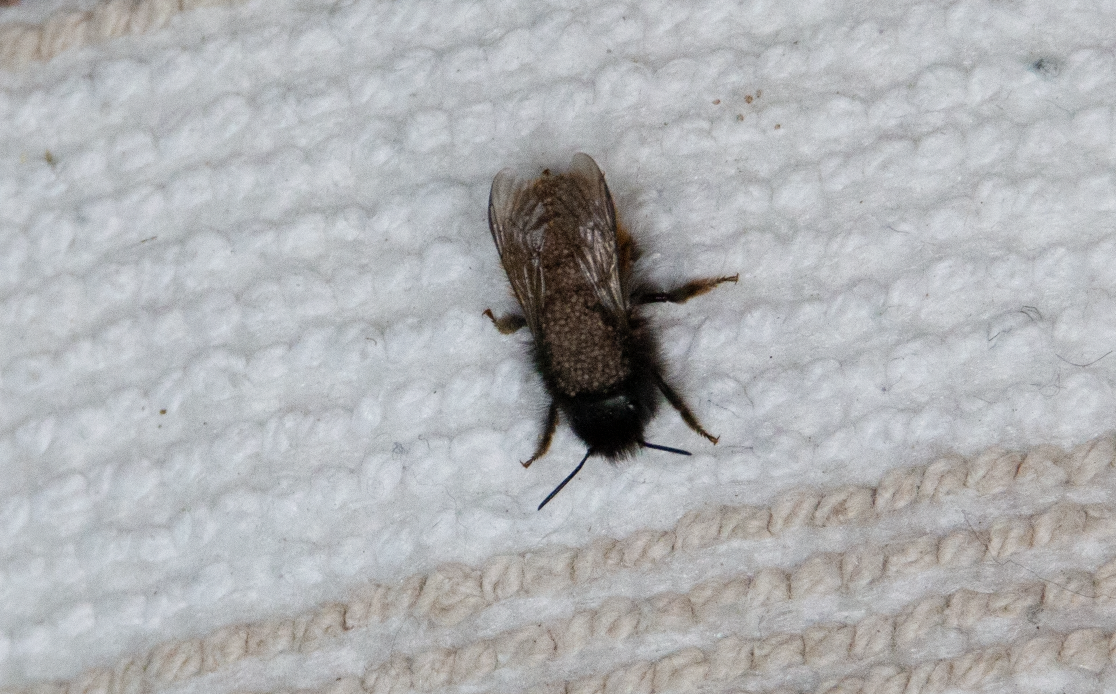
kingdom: Animalia
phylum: Arthropoda
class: Insecta
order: Hymenoptera
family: Megachilidae
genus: Osmia
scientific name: Osmia cornuta
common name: Mason bee
